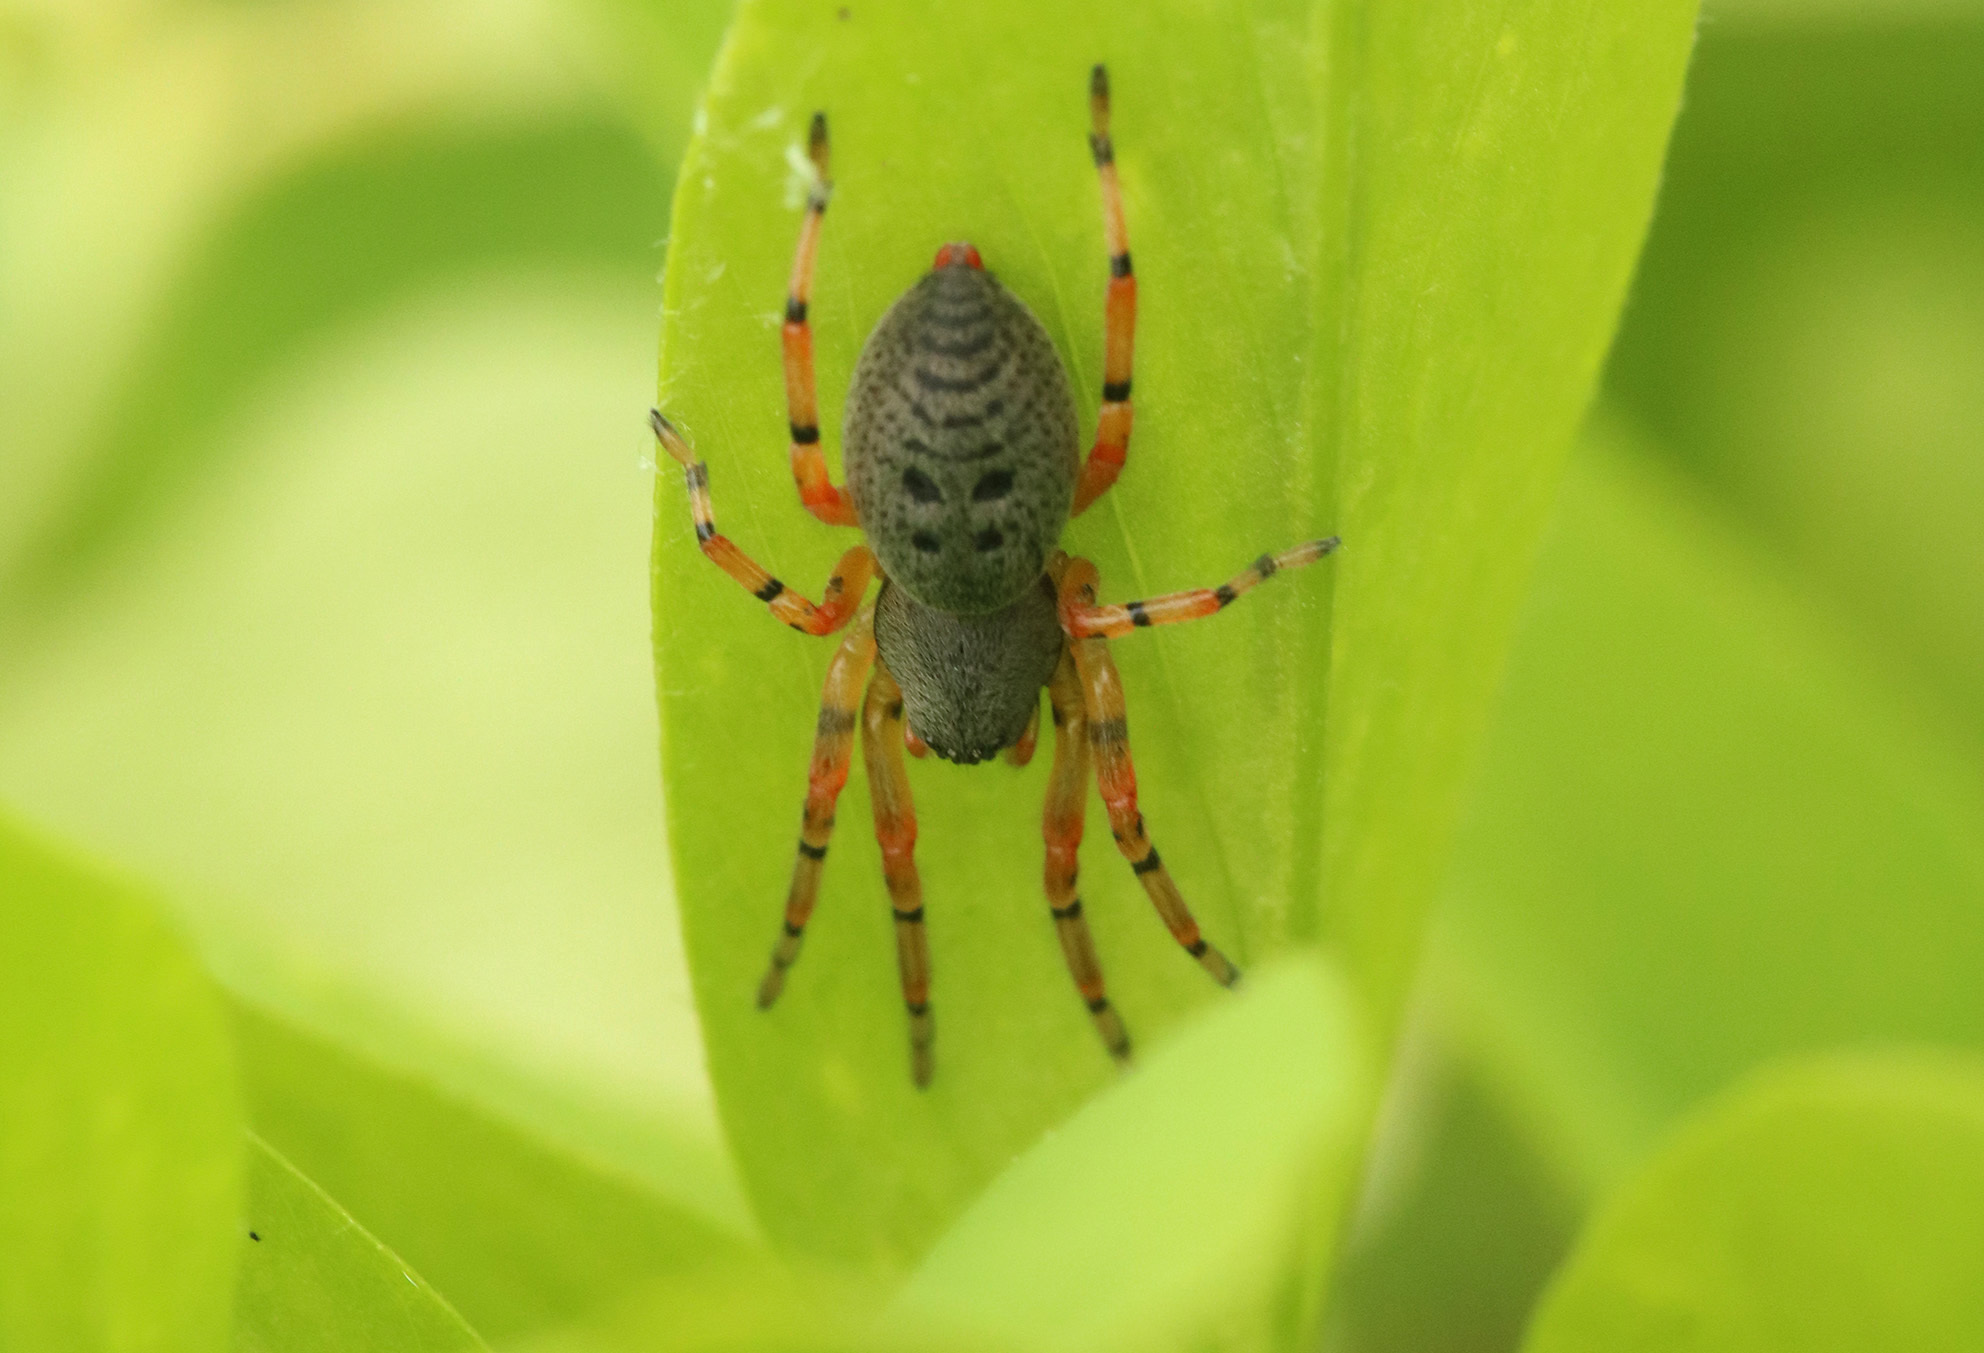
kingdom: Animalia
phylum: Arthropoda
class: Arachnida
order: Araneae
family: Trachelidae
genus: Trachelopachys
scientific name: Trachelopachys
